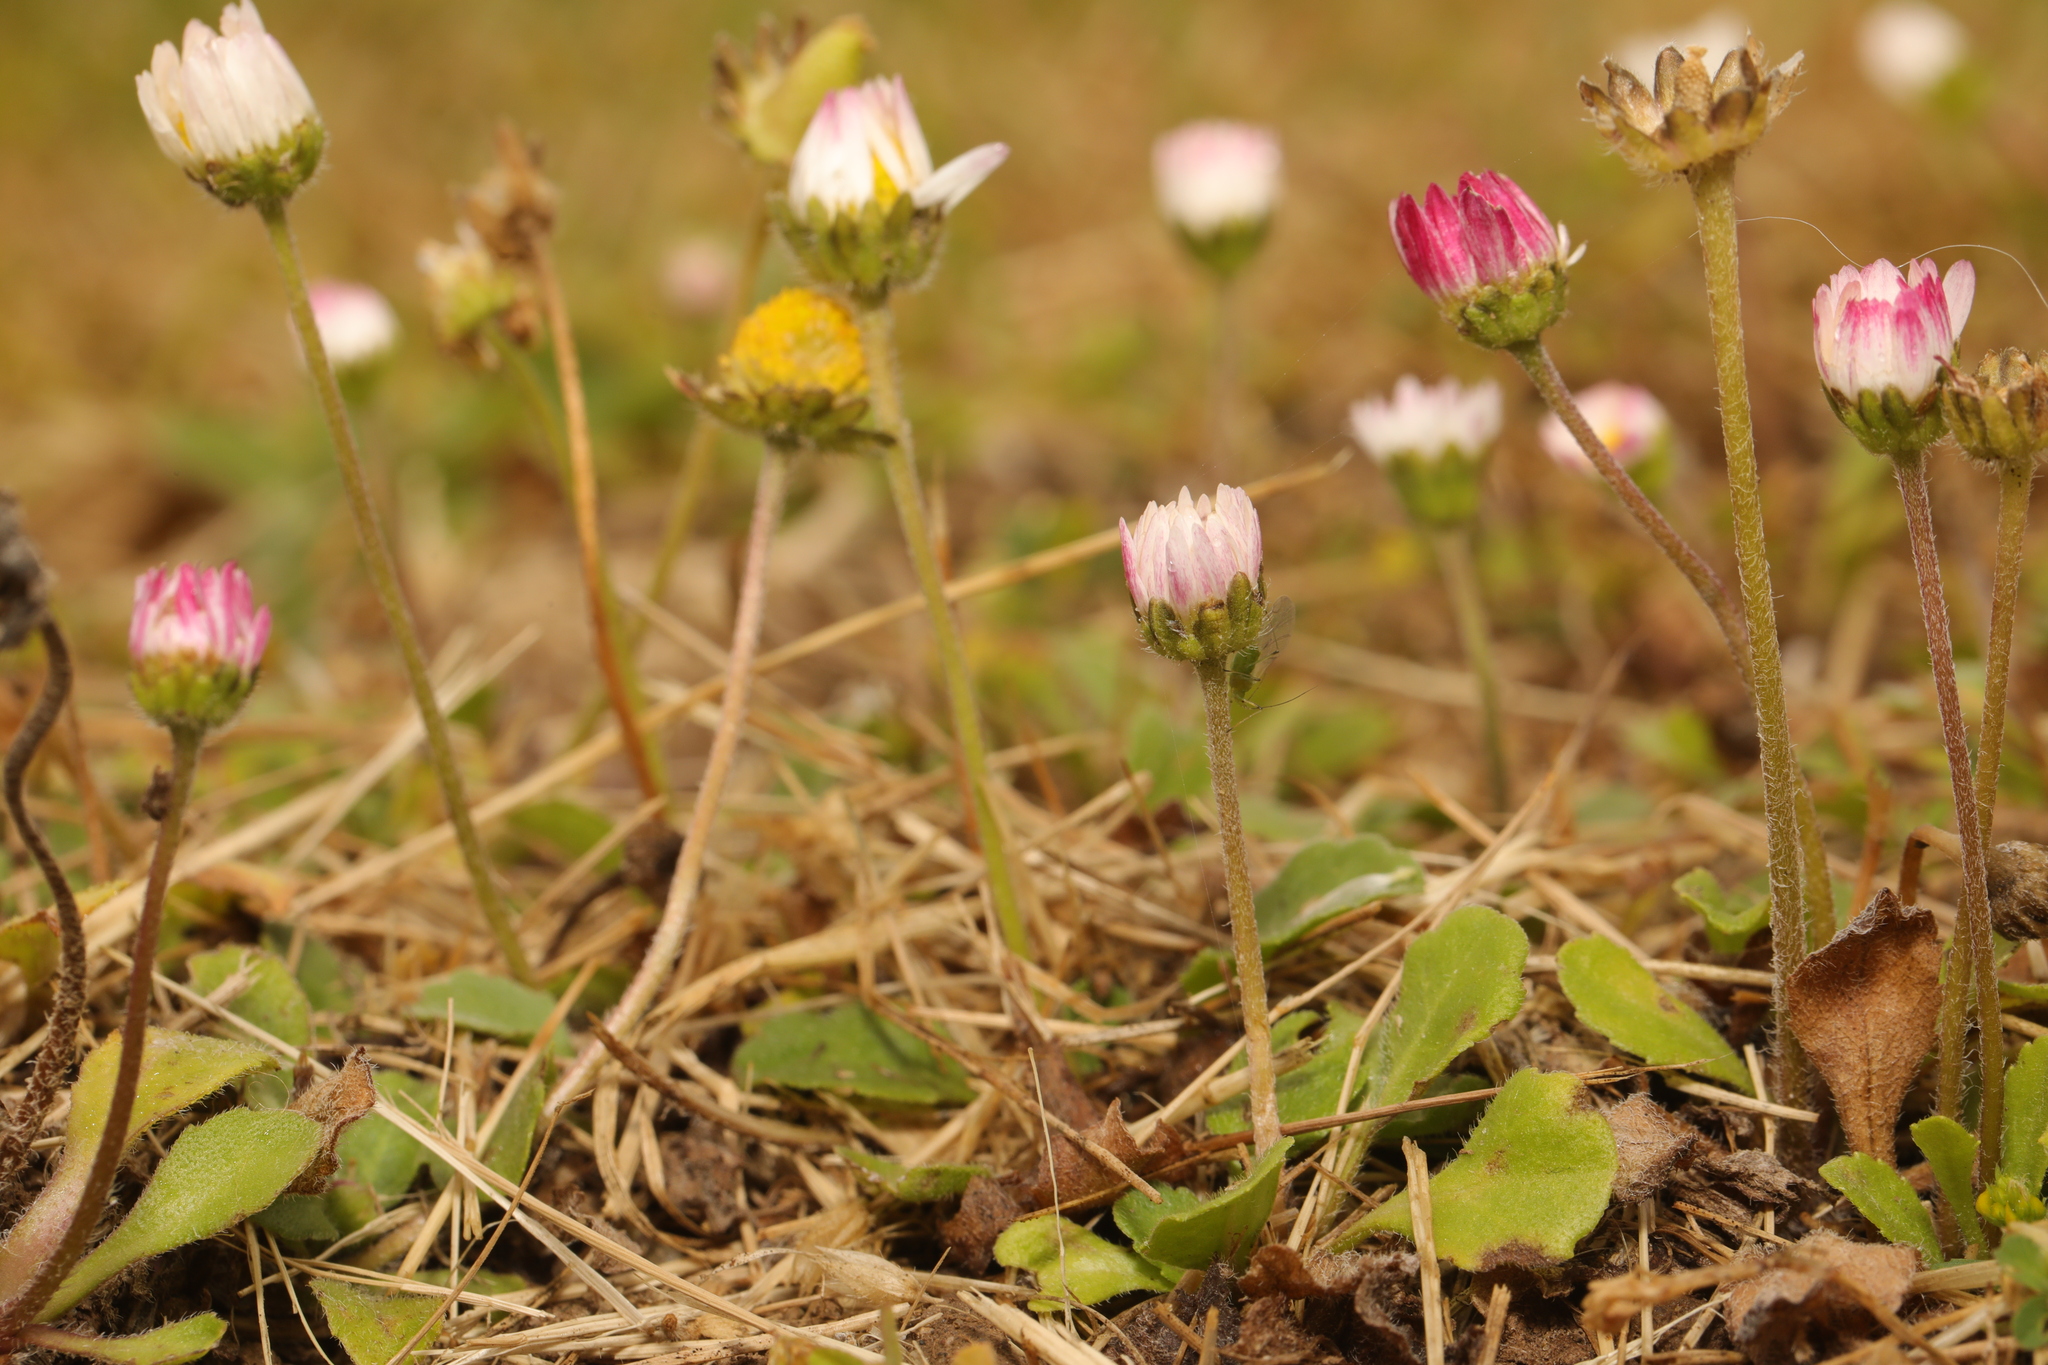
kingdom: Plantae
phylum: Tracheophyta
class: Magnoliopsida
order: Asterales
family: Asteraceae
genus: Bellis
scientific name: Bellis perennis
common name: Lawndaisy
